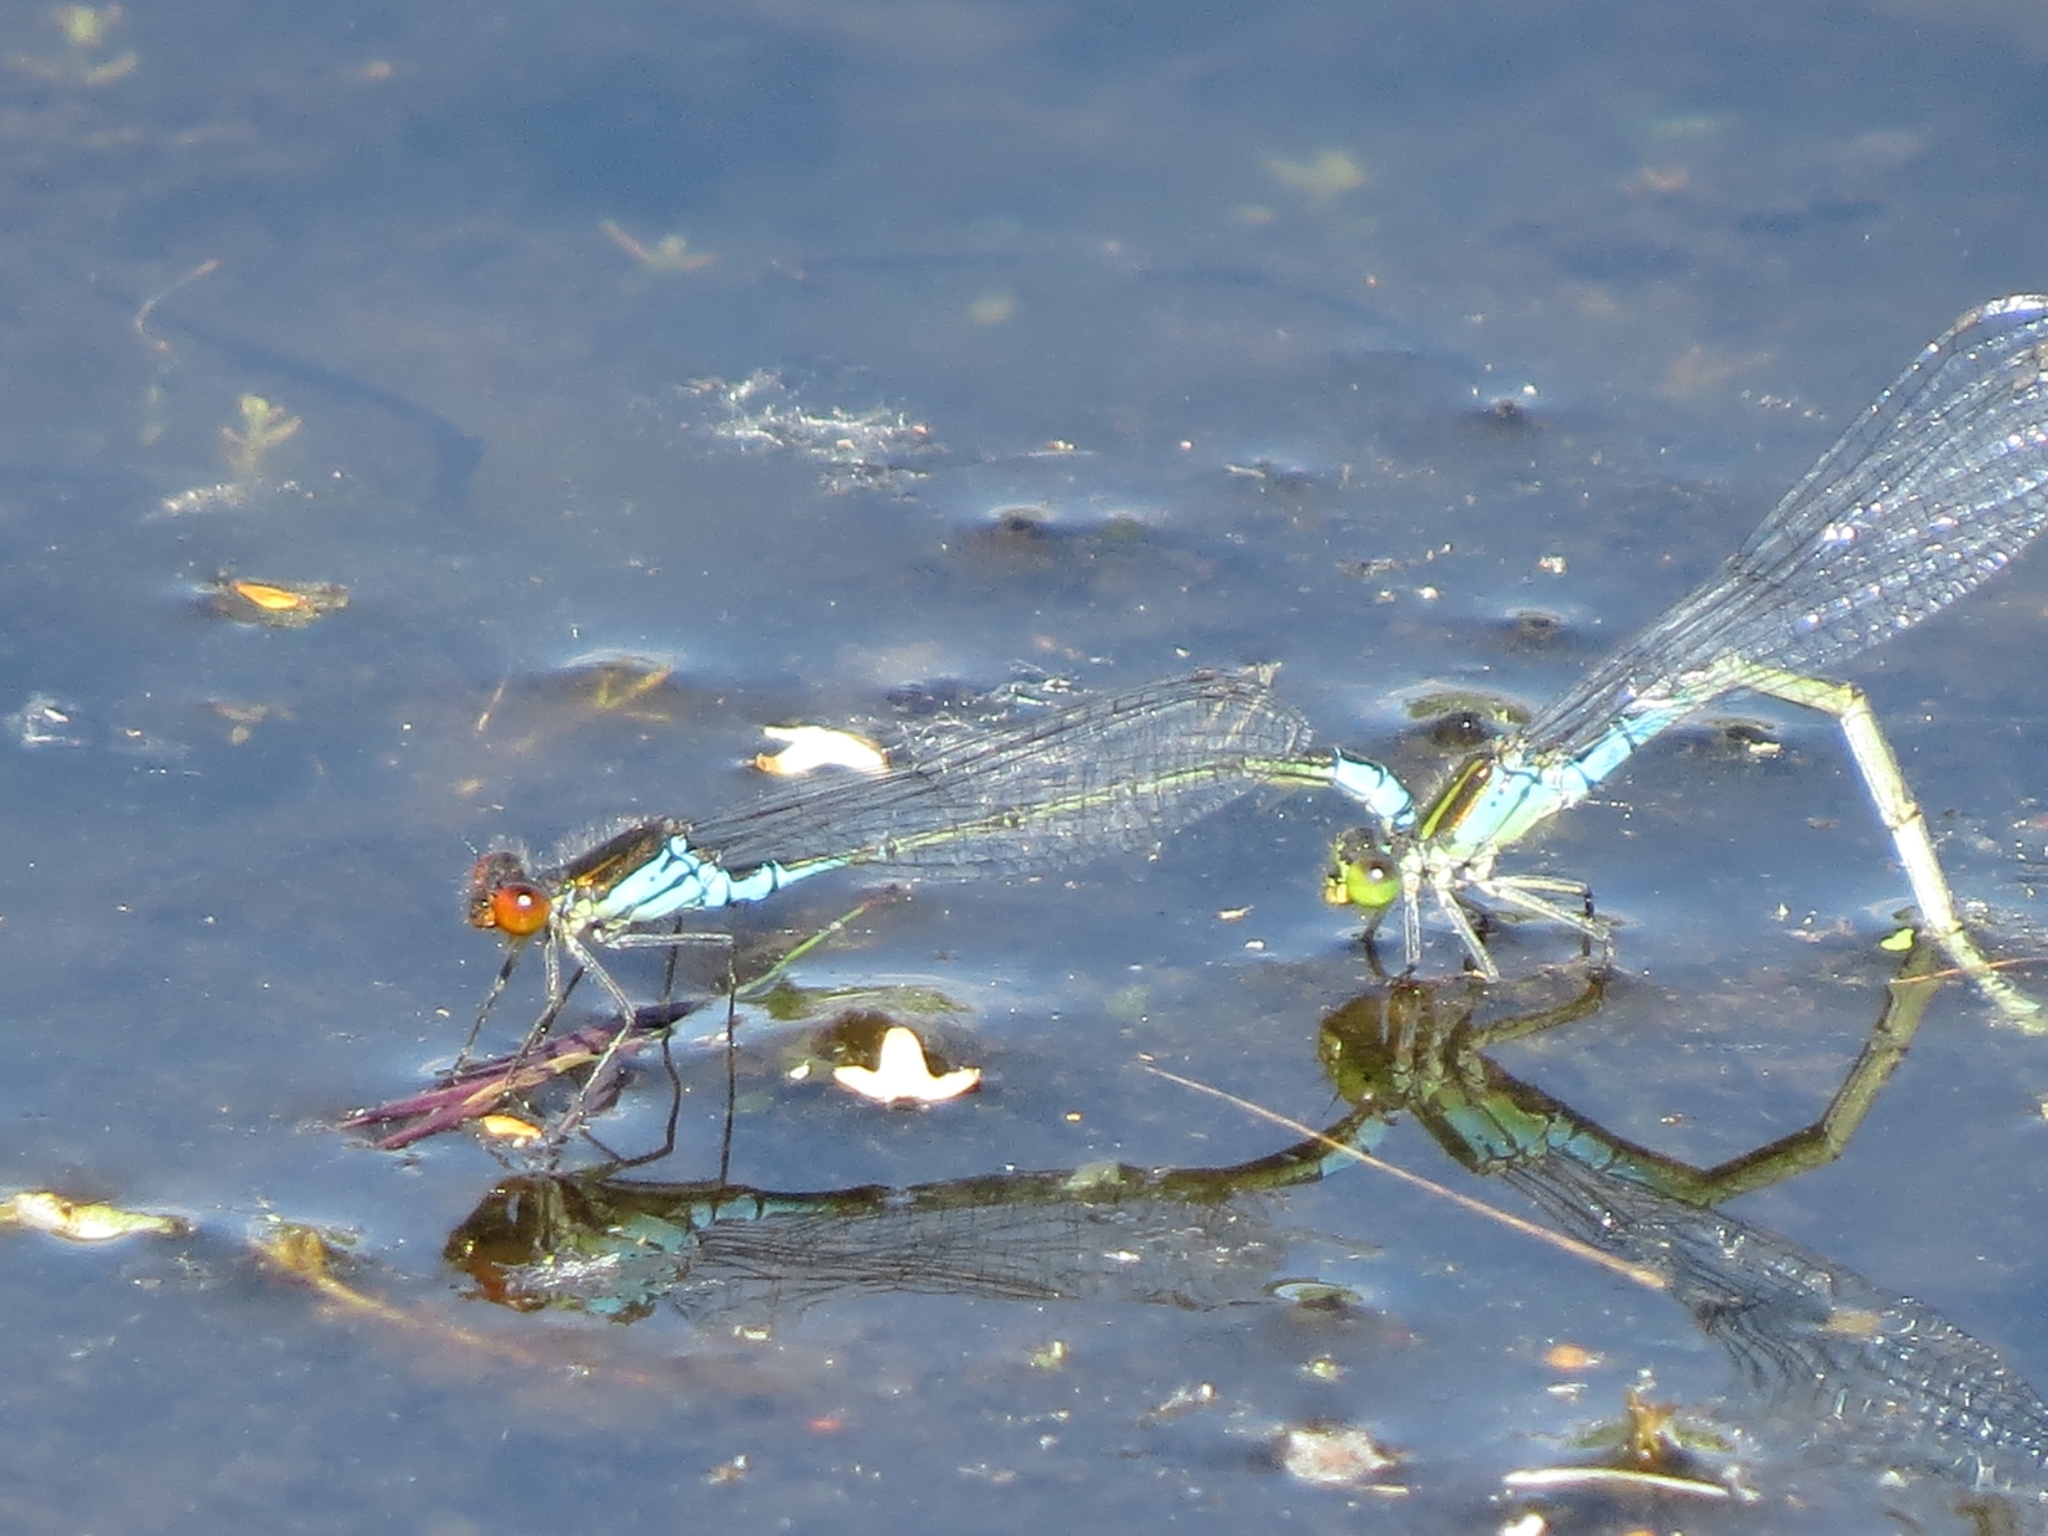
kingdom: Animalia
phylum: Arthropoda
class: Insecta
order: Odonata
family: Coenagrionidae
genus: Erythromma
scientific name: Erythromma viridulum
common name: Small red-eyed damselfly
